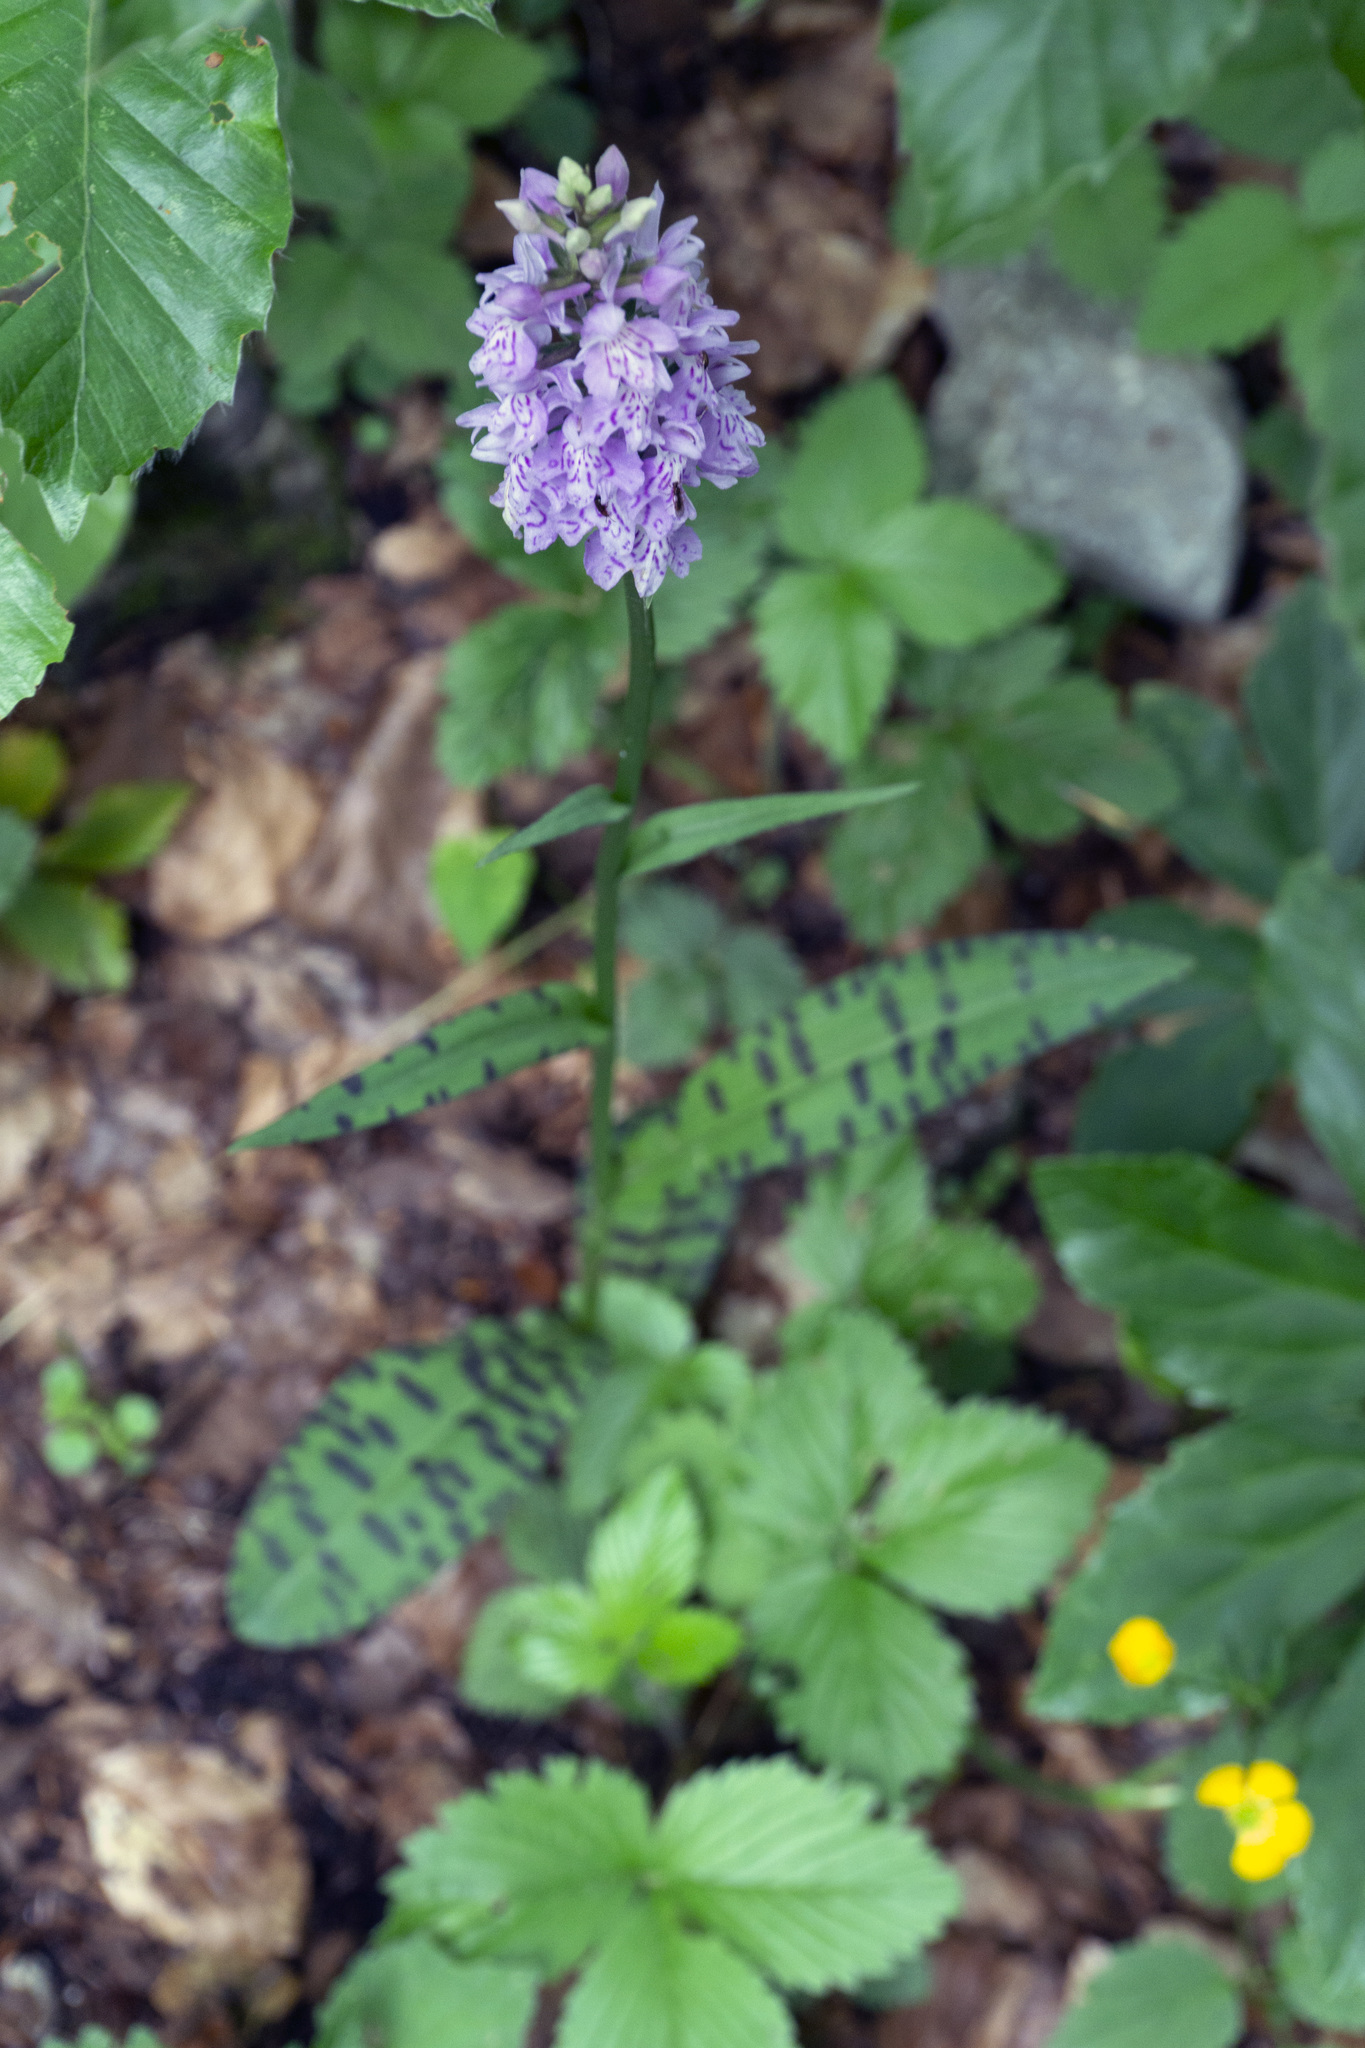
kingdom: Plantae
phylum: Tracheophyta
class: Liliopsida
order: Asparagales
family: Orchidaceae
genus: Dactylorhiza
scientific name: Dactylorhiza maculata
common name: Heath spotted-orchid
